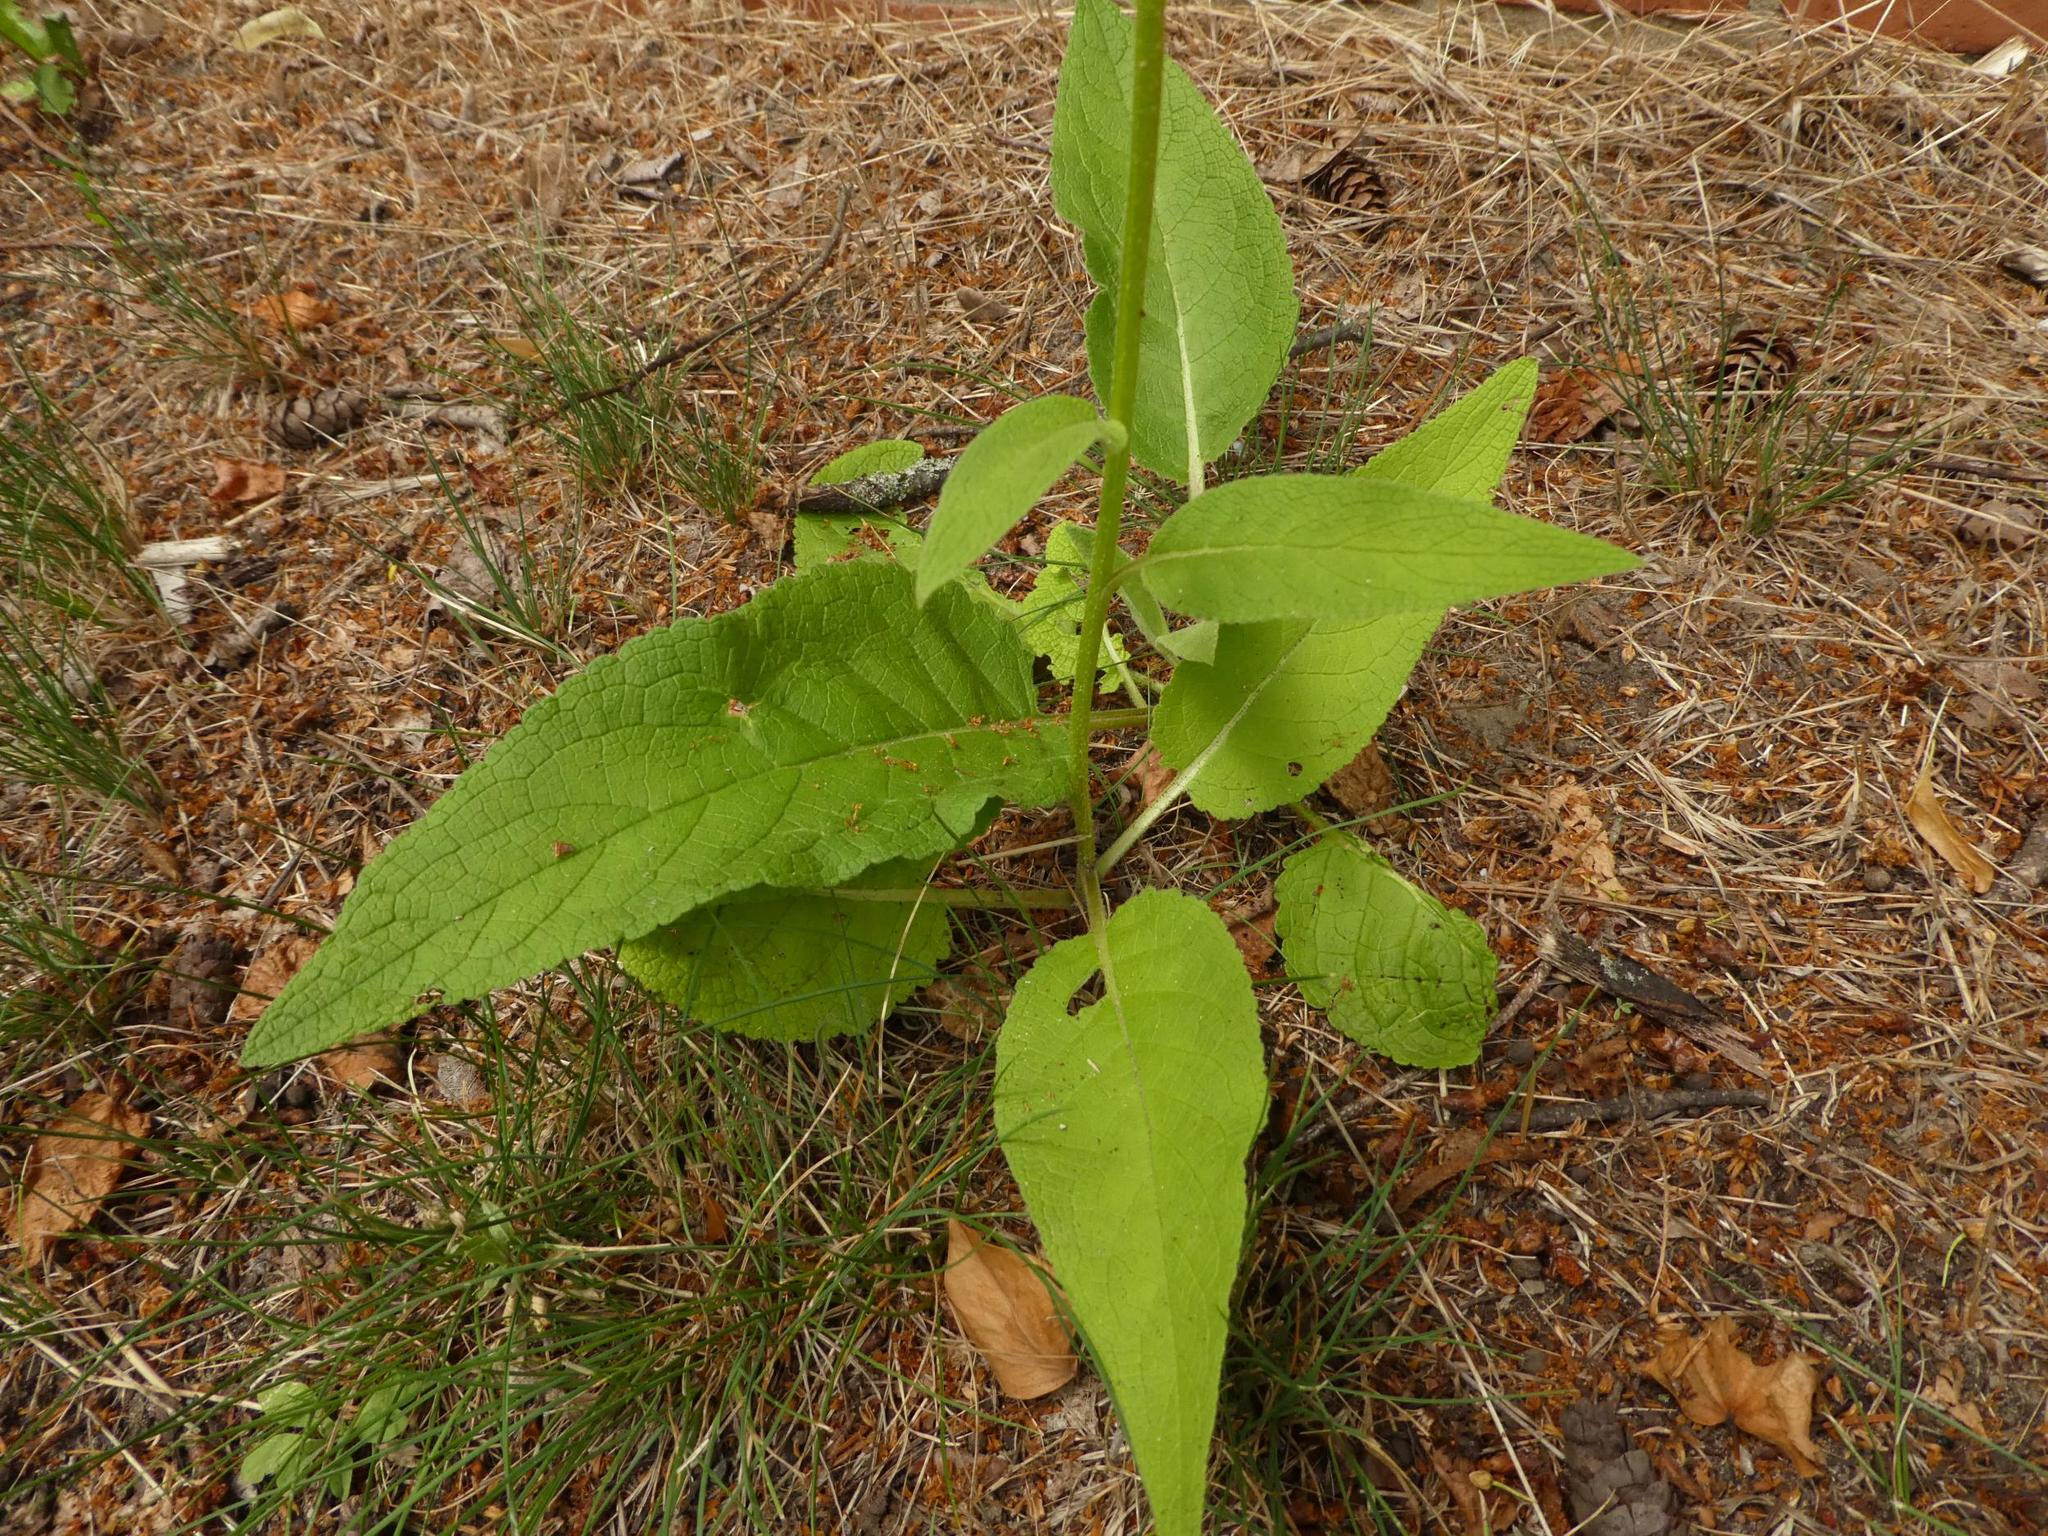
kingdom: Plantae
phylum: Tracheophyta
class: Magnoliopsida
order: Lamiales
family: Scrophulariaceae
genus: Verbascum
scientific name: Verbascum nigrum
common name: Dark mullein
